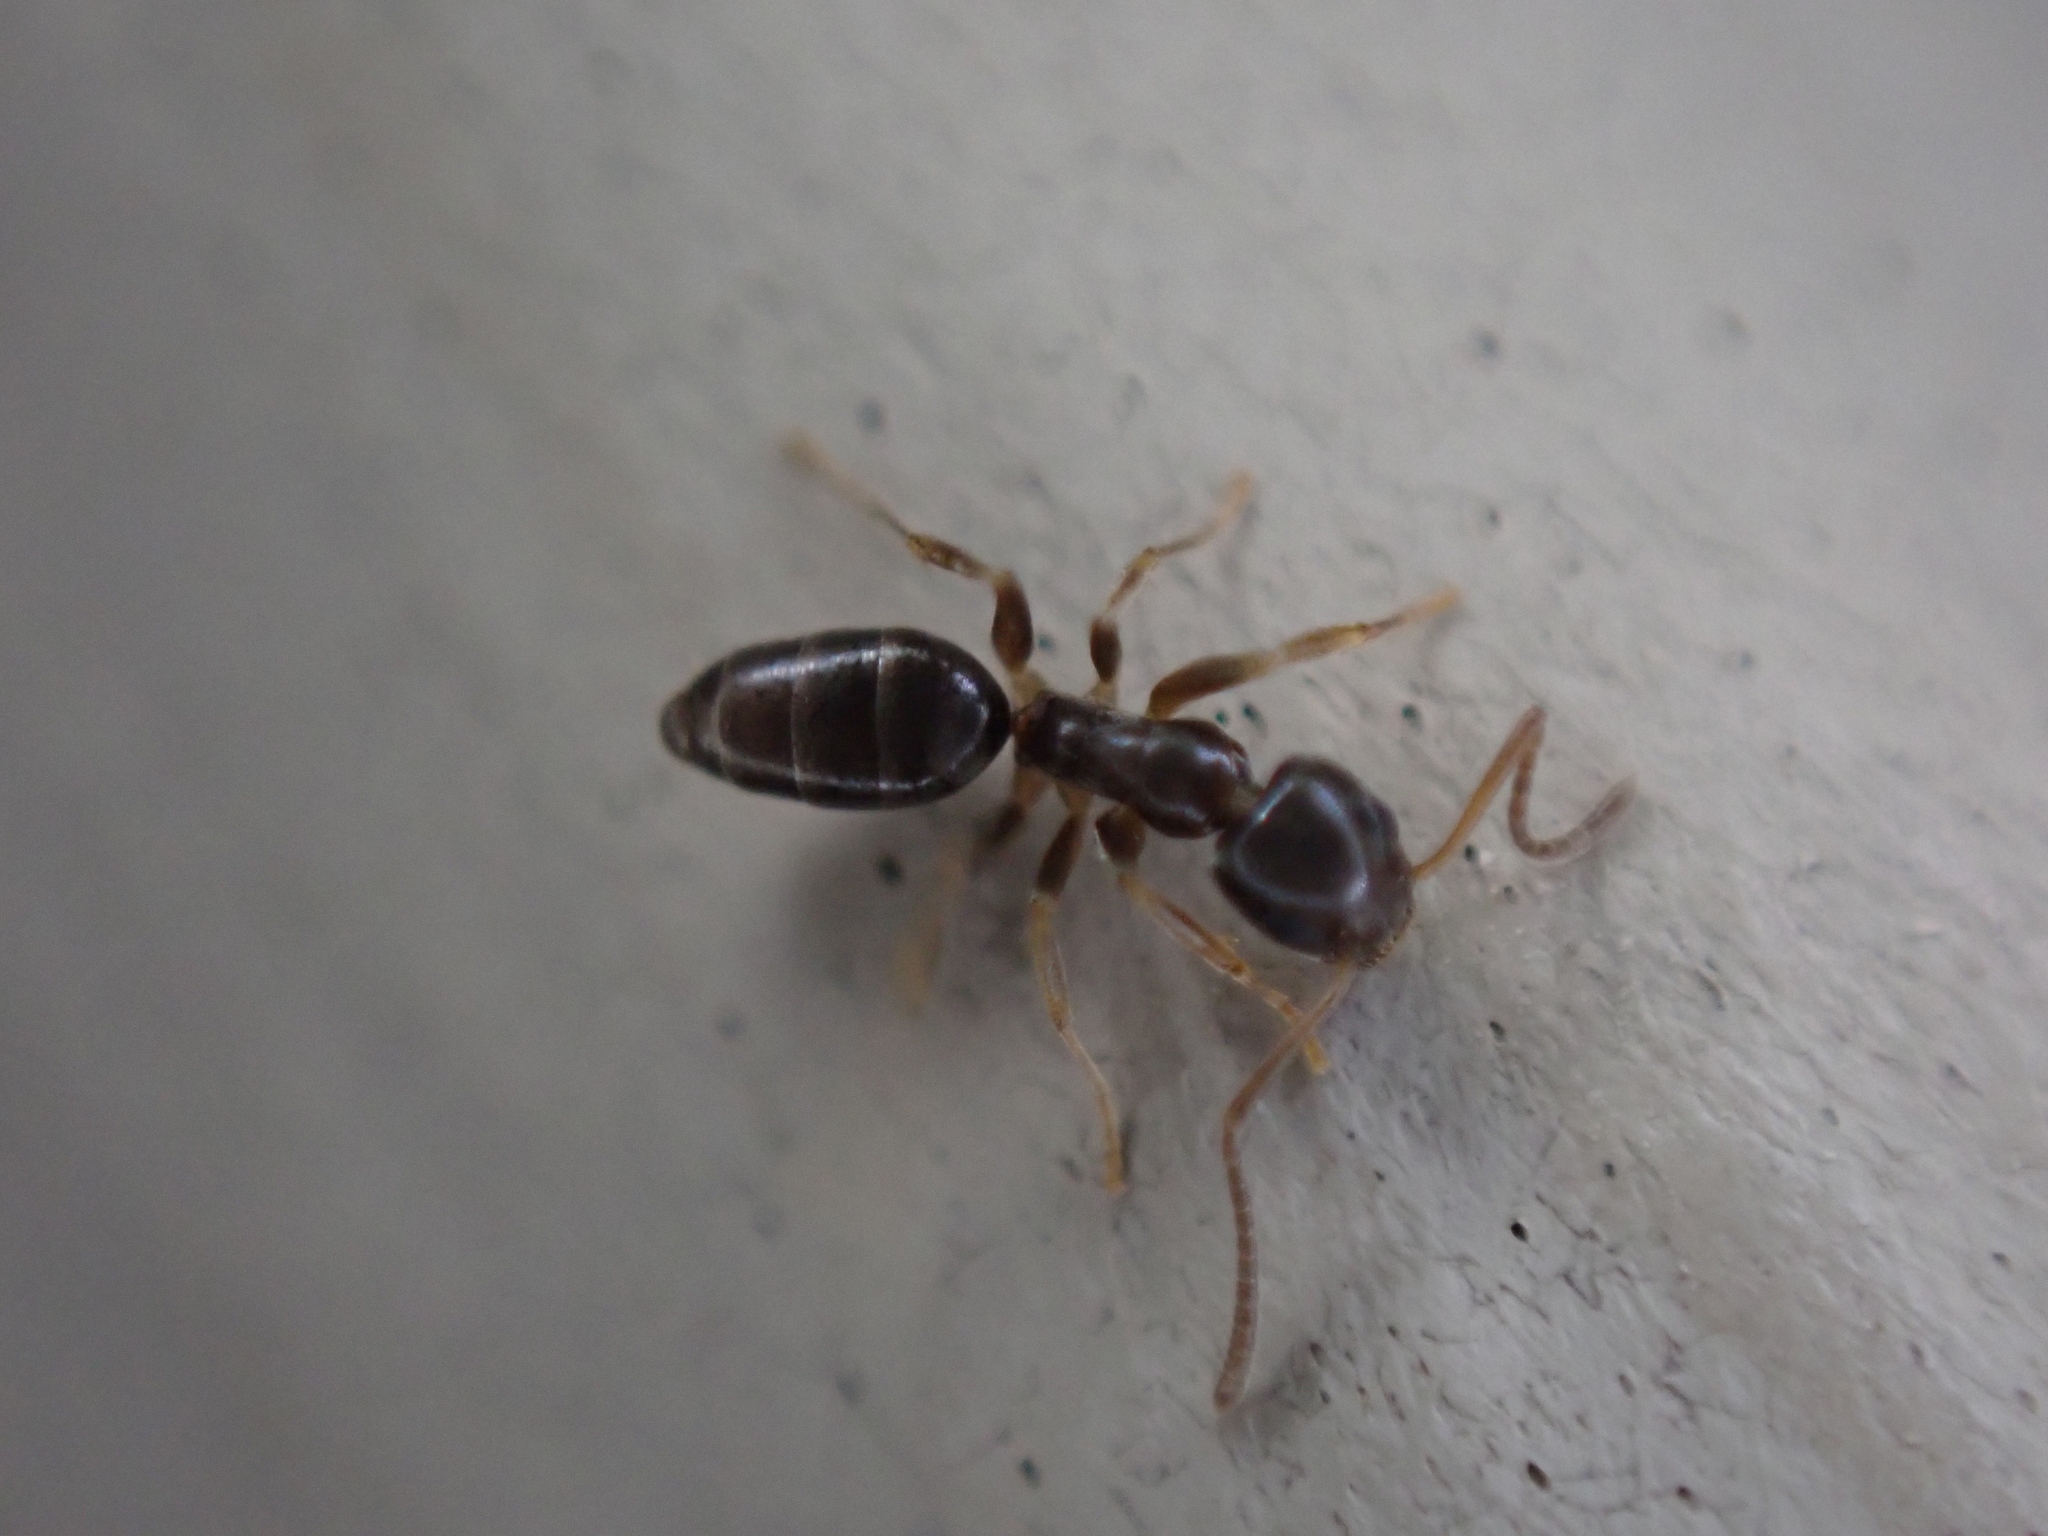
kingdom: Animalia
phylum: Arthropoda
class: Insecta
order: Hymenoptera
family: Formicidae
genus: Tapinoma
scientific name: Tapinoma sessile
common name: Odorous house ant
